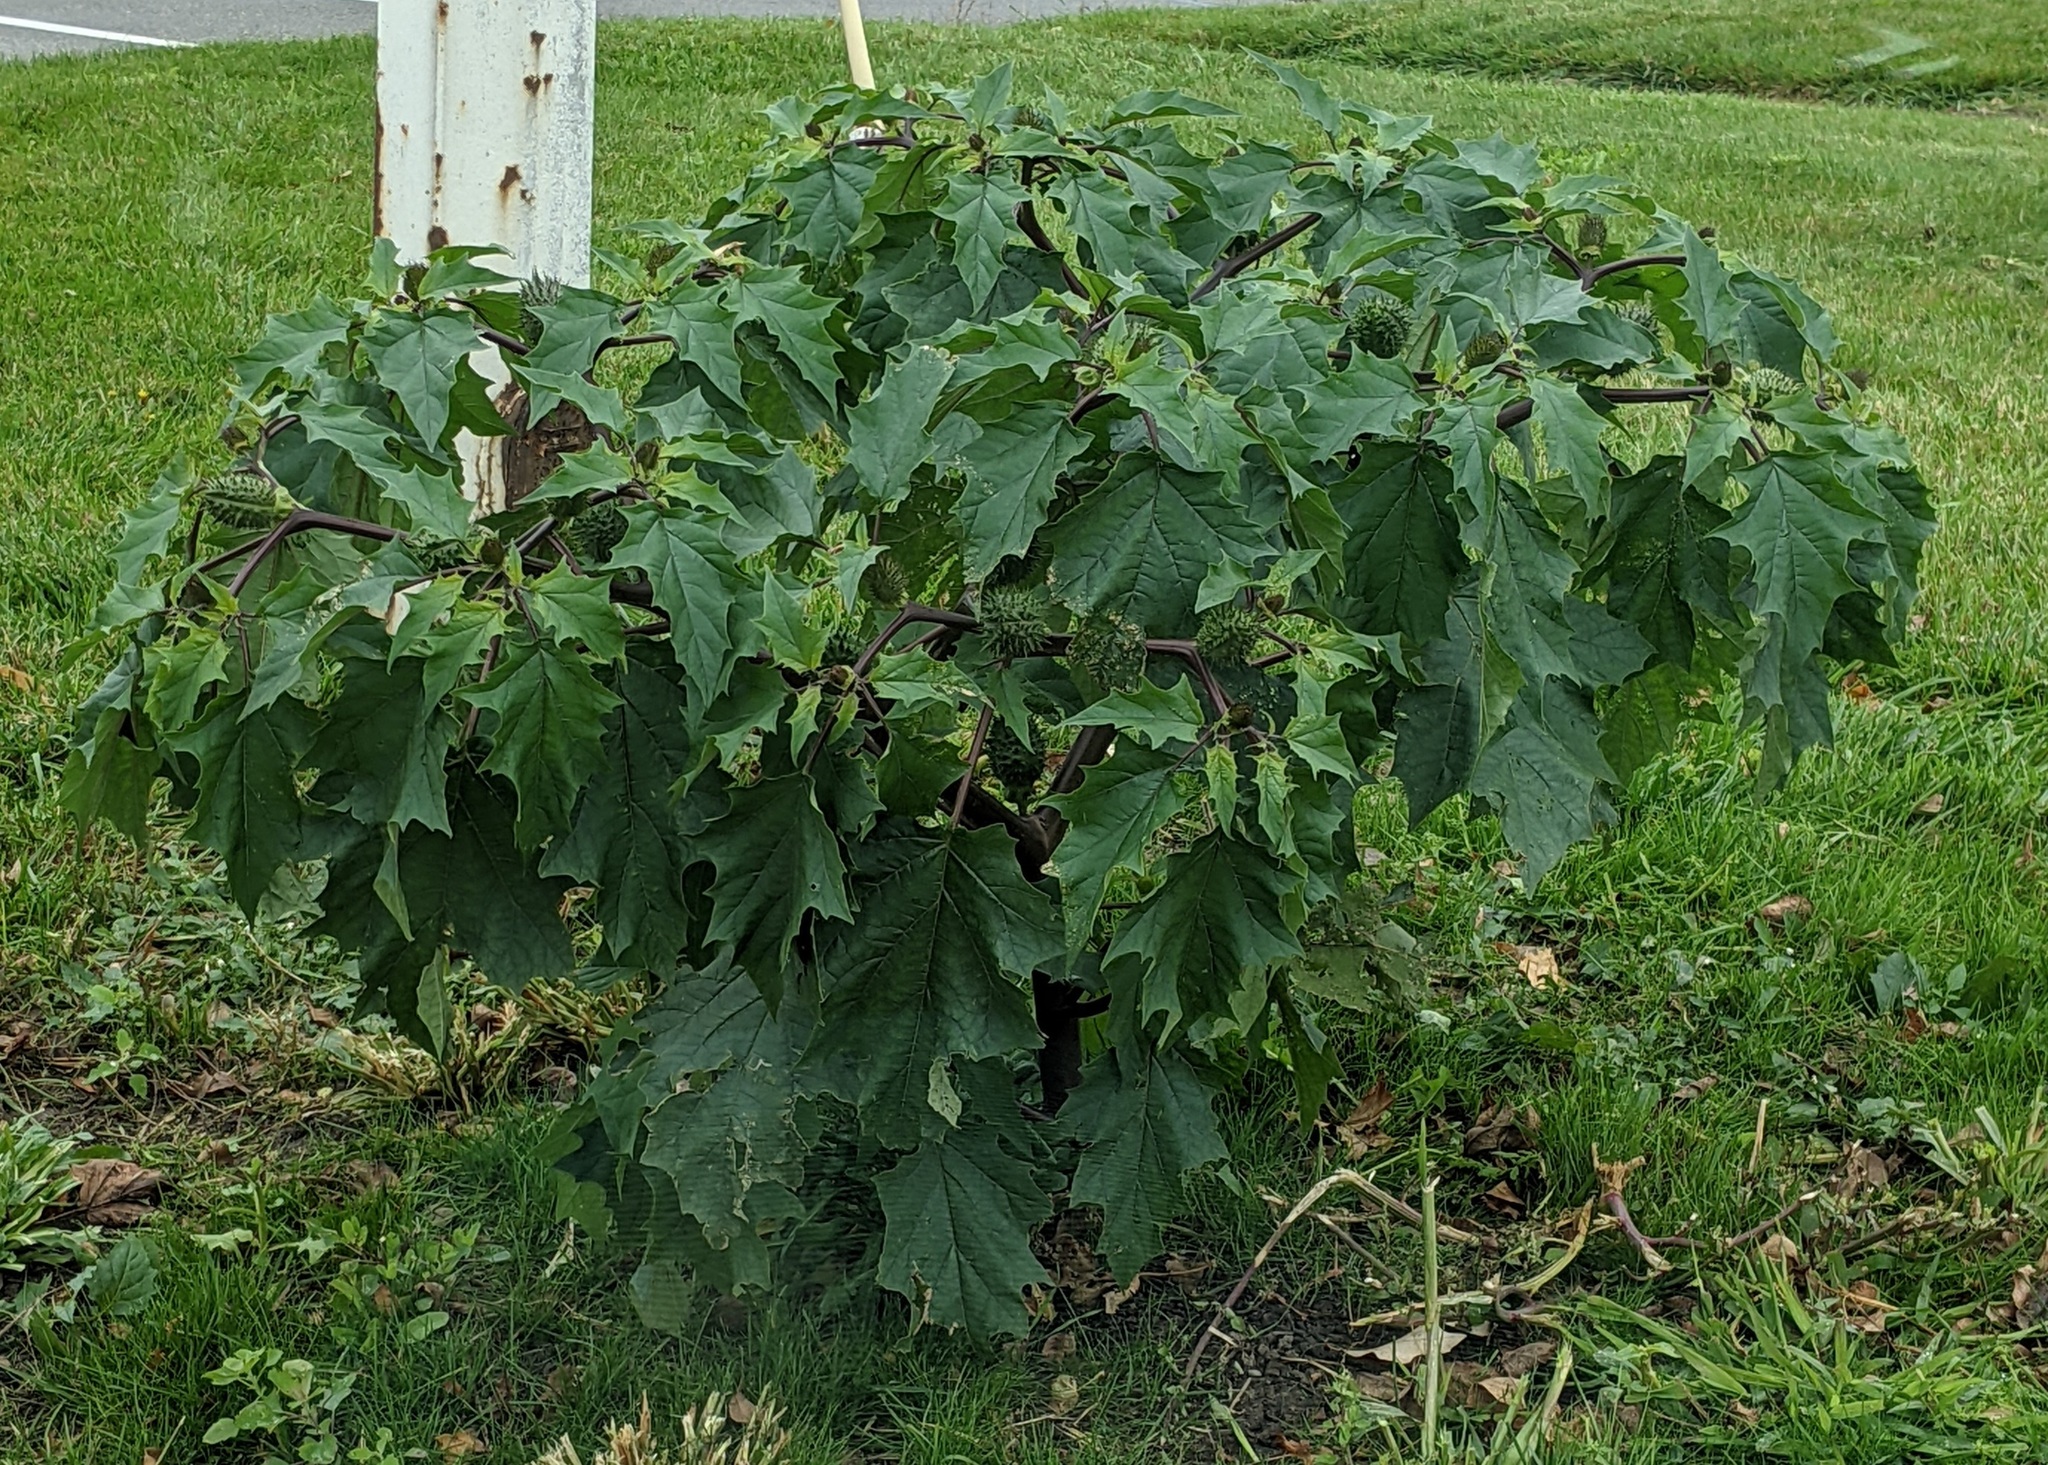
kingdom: Plantae
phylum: Tracheophyta
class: Magnoliopsida
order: Solanales
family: Solanaceae
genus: Datura
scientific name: Datura stramonium
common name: Thorn-apple
